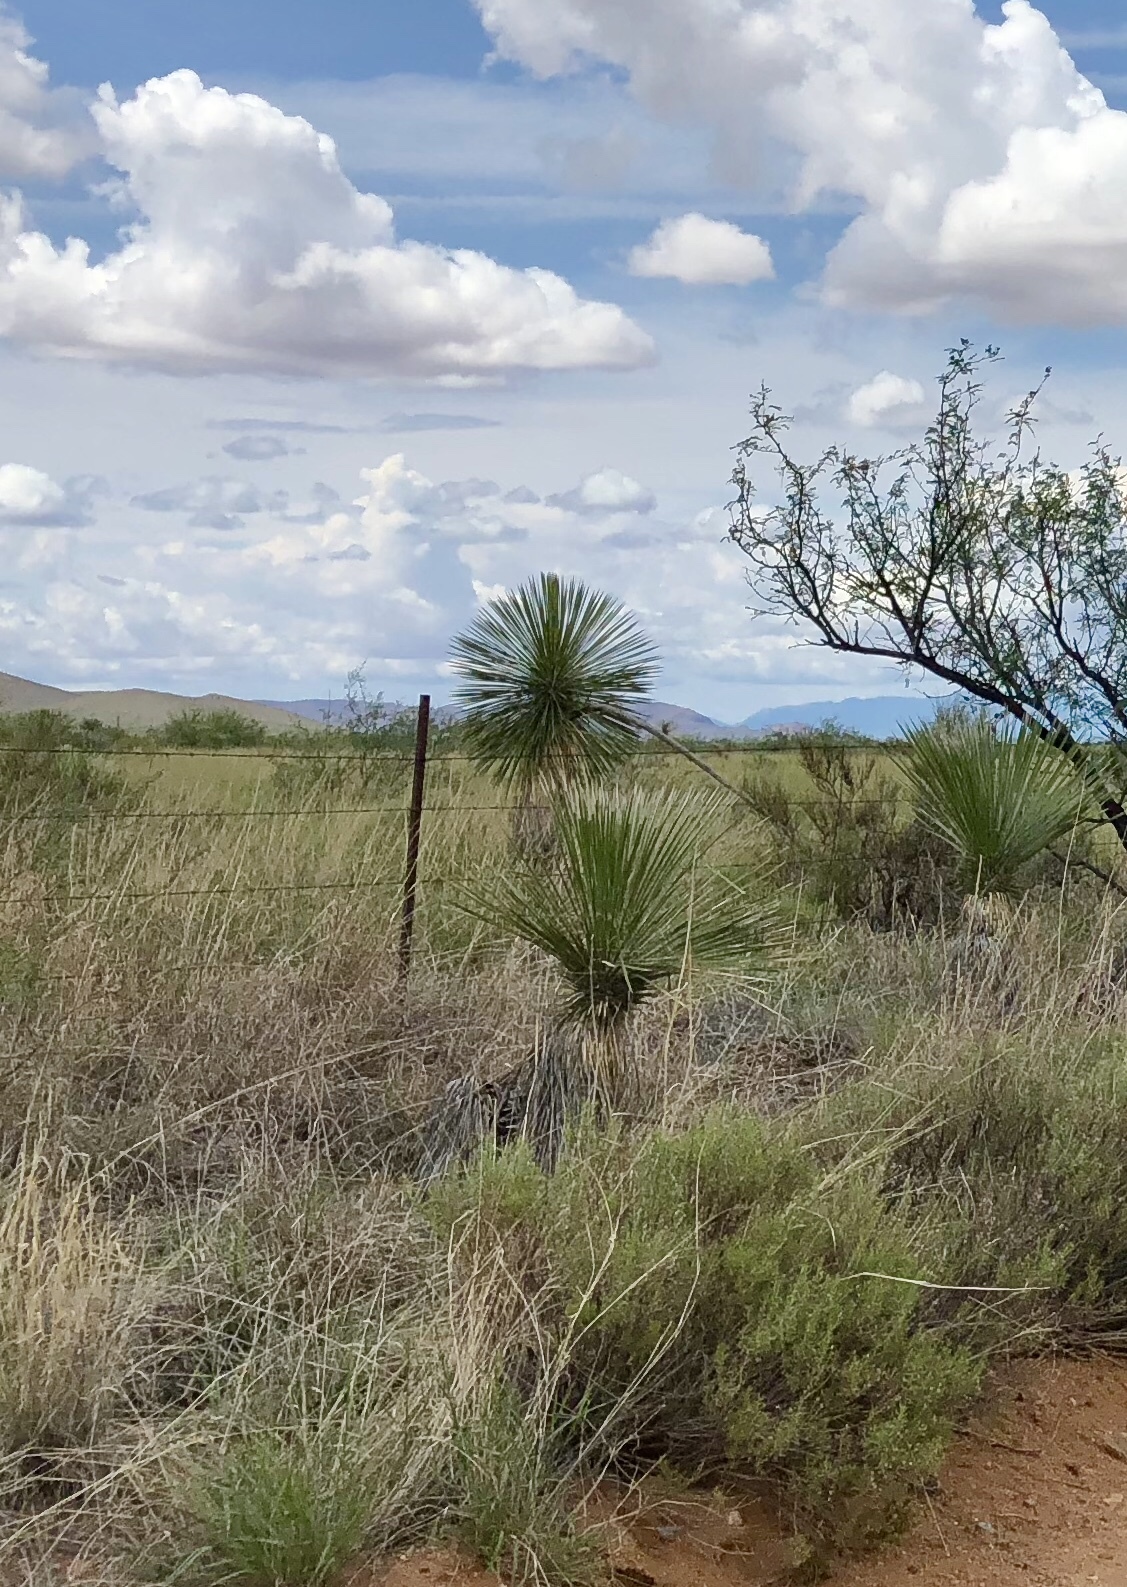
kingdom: Plantae
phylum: Tracheophyta
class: Liliopsida
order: Asparagales
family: Asparagaceae
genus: Yucca
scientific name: Yucca elata
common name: Palmella
